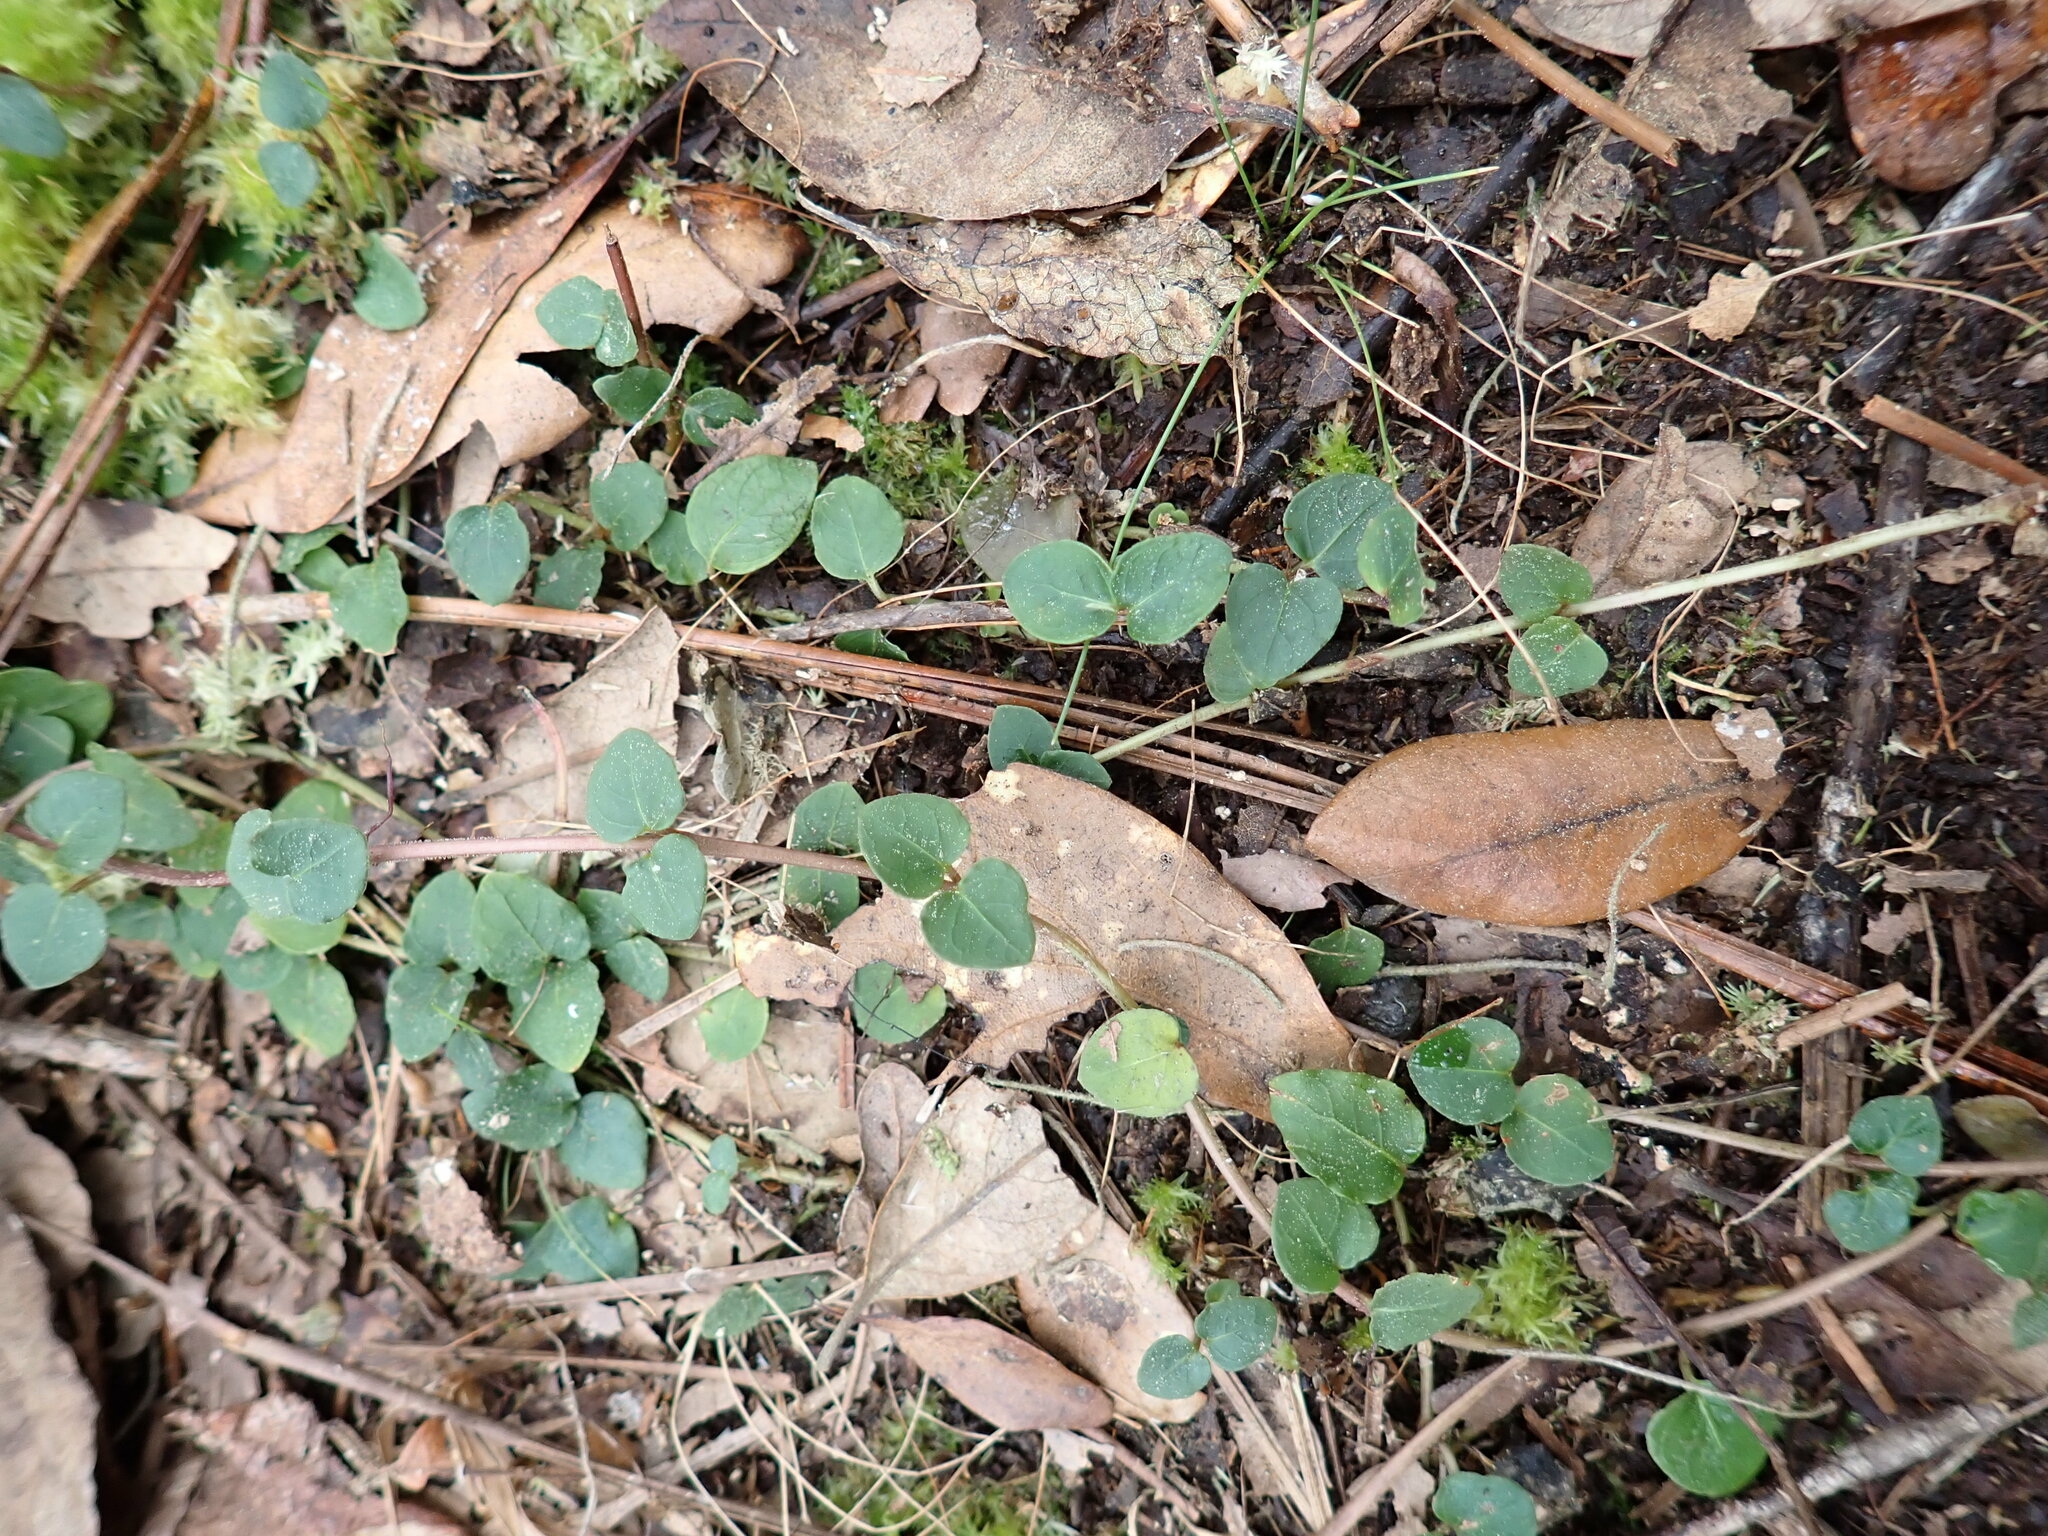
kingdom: Plantae
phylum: Tracheophyta
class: Magnoliopsida
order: Gentianales
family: Rubiaceae
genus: Mitchella
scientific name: Mitchella repens
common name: Partridge-berry
